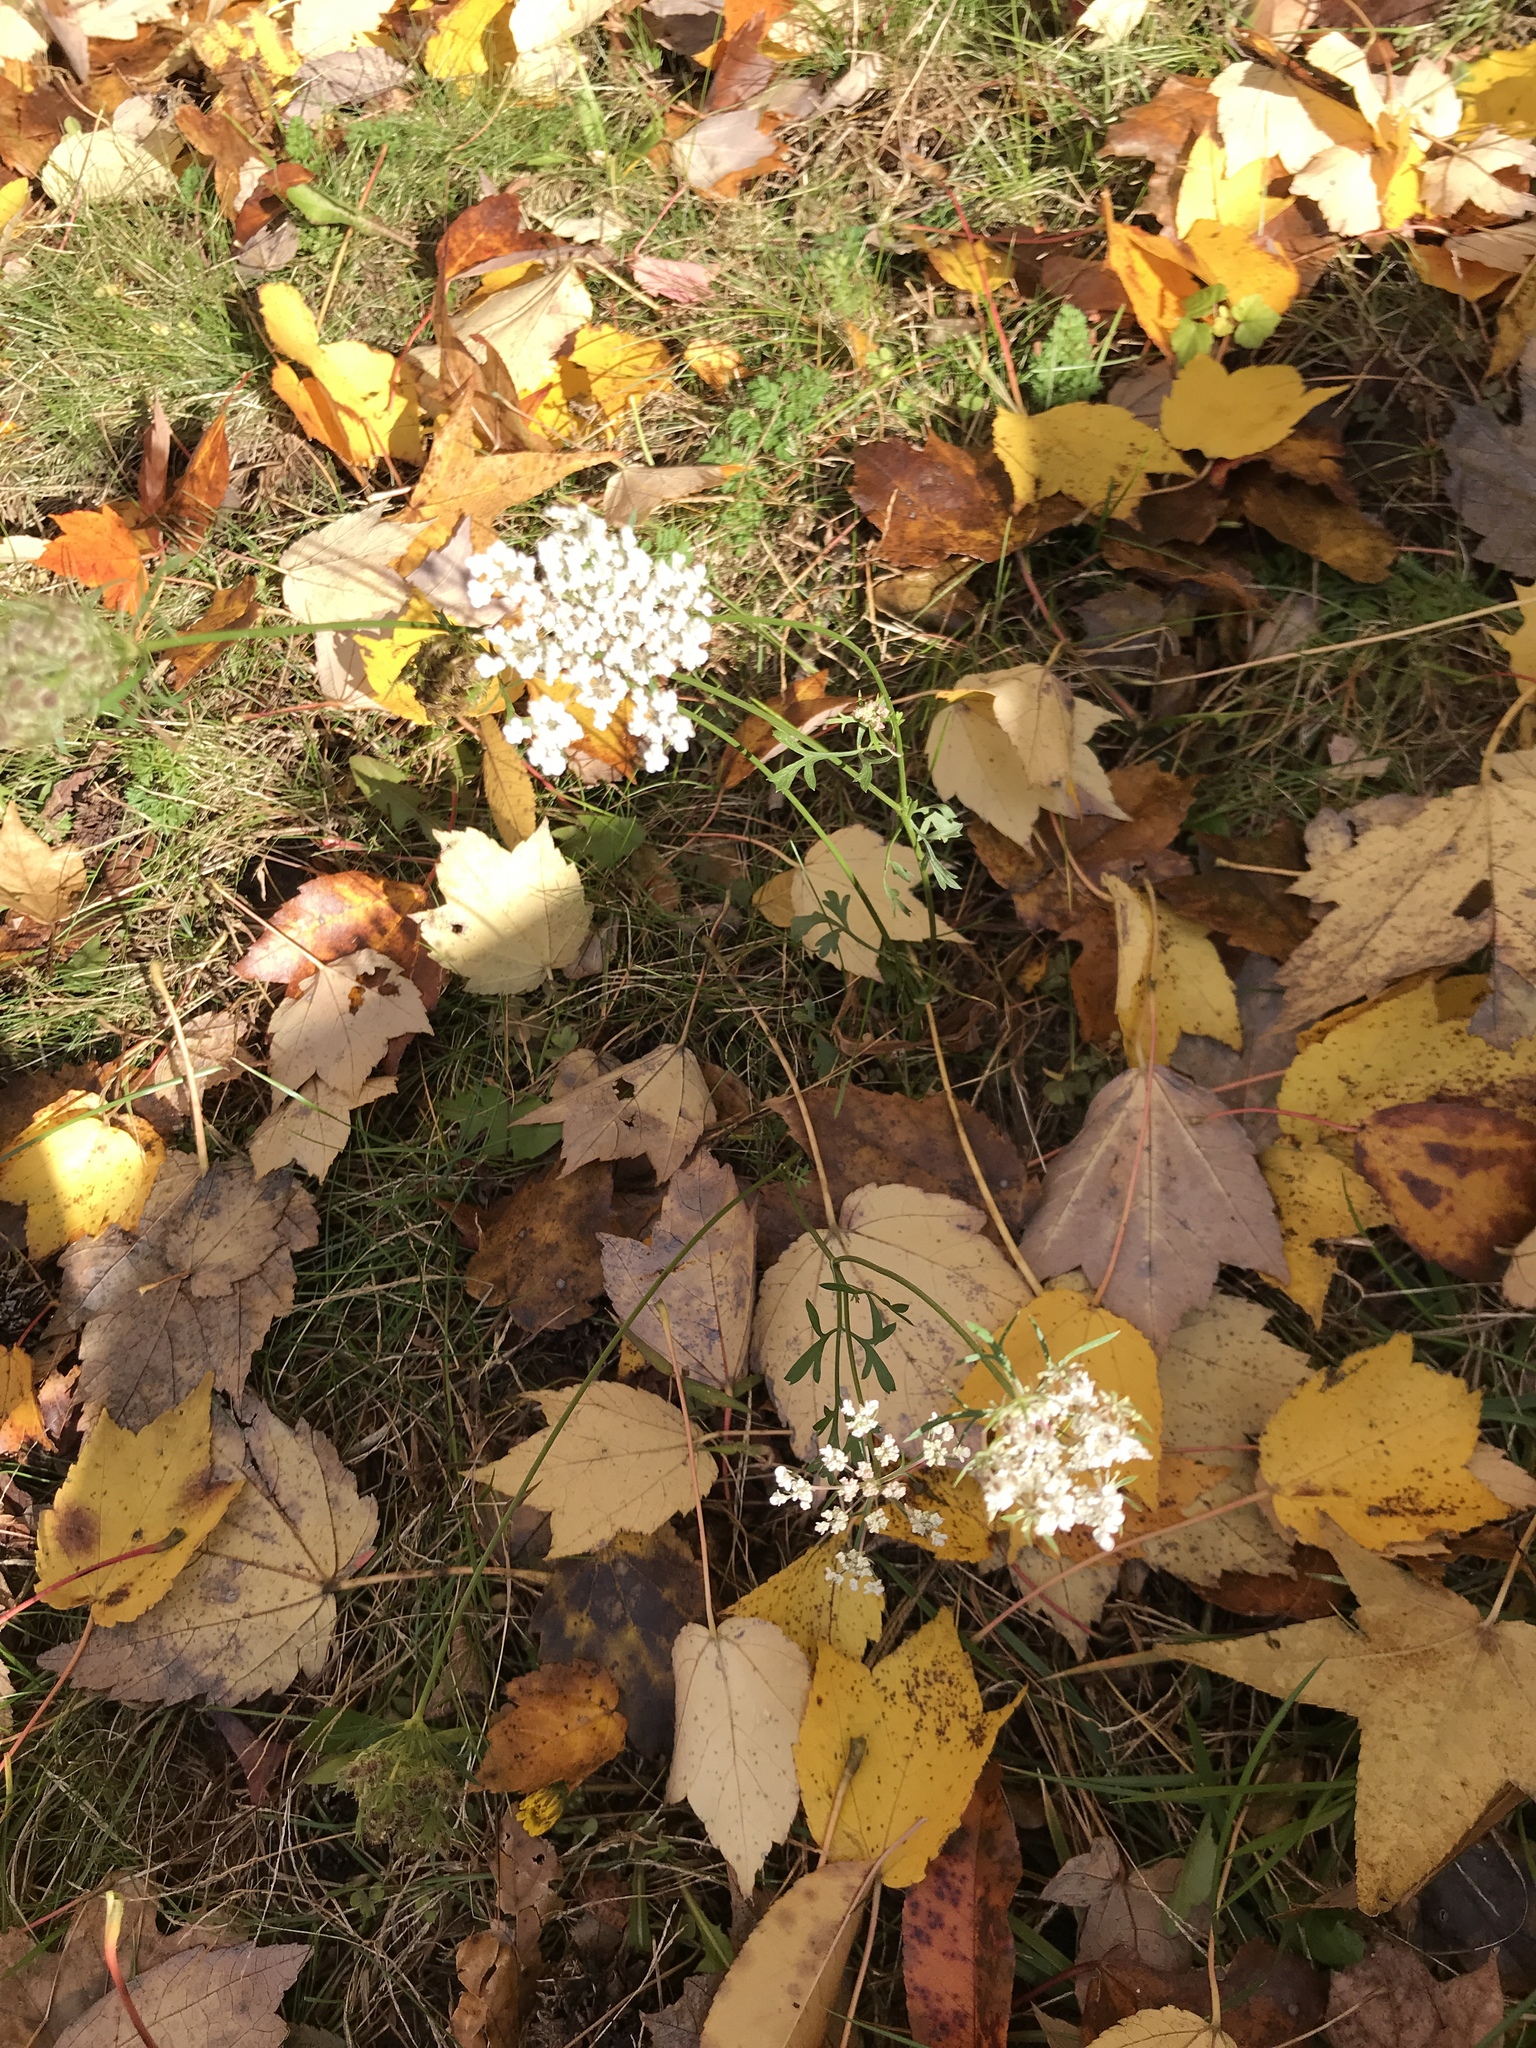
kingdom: Plantae
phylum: Tracheophyta
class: Magnoliopsida
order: Apiales
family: Apiaceae
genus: Daucus
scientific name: Daucus carota
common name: Wild carrot
